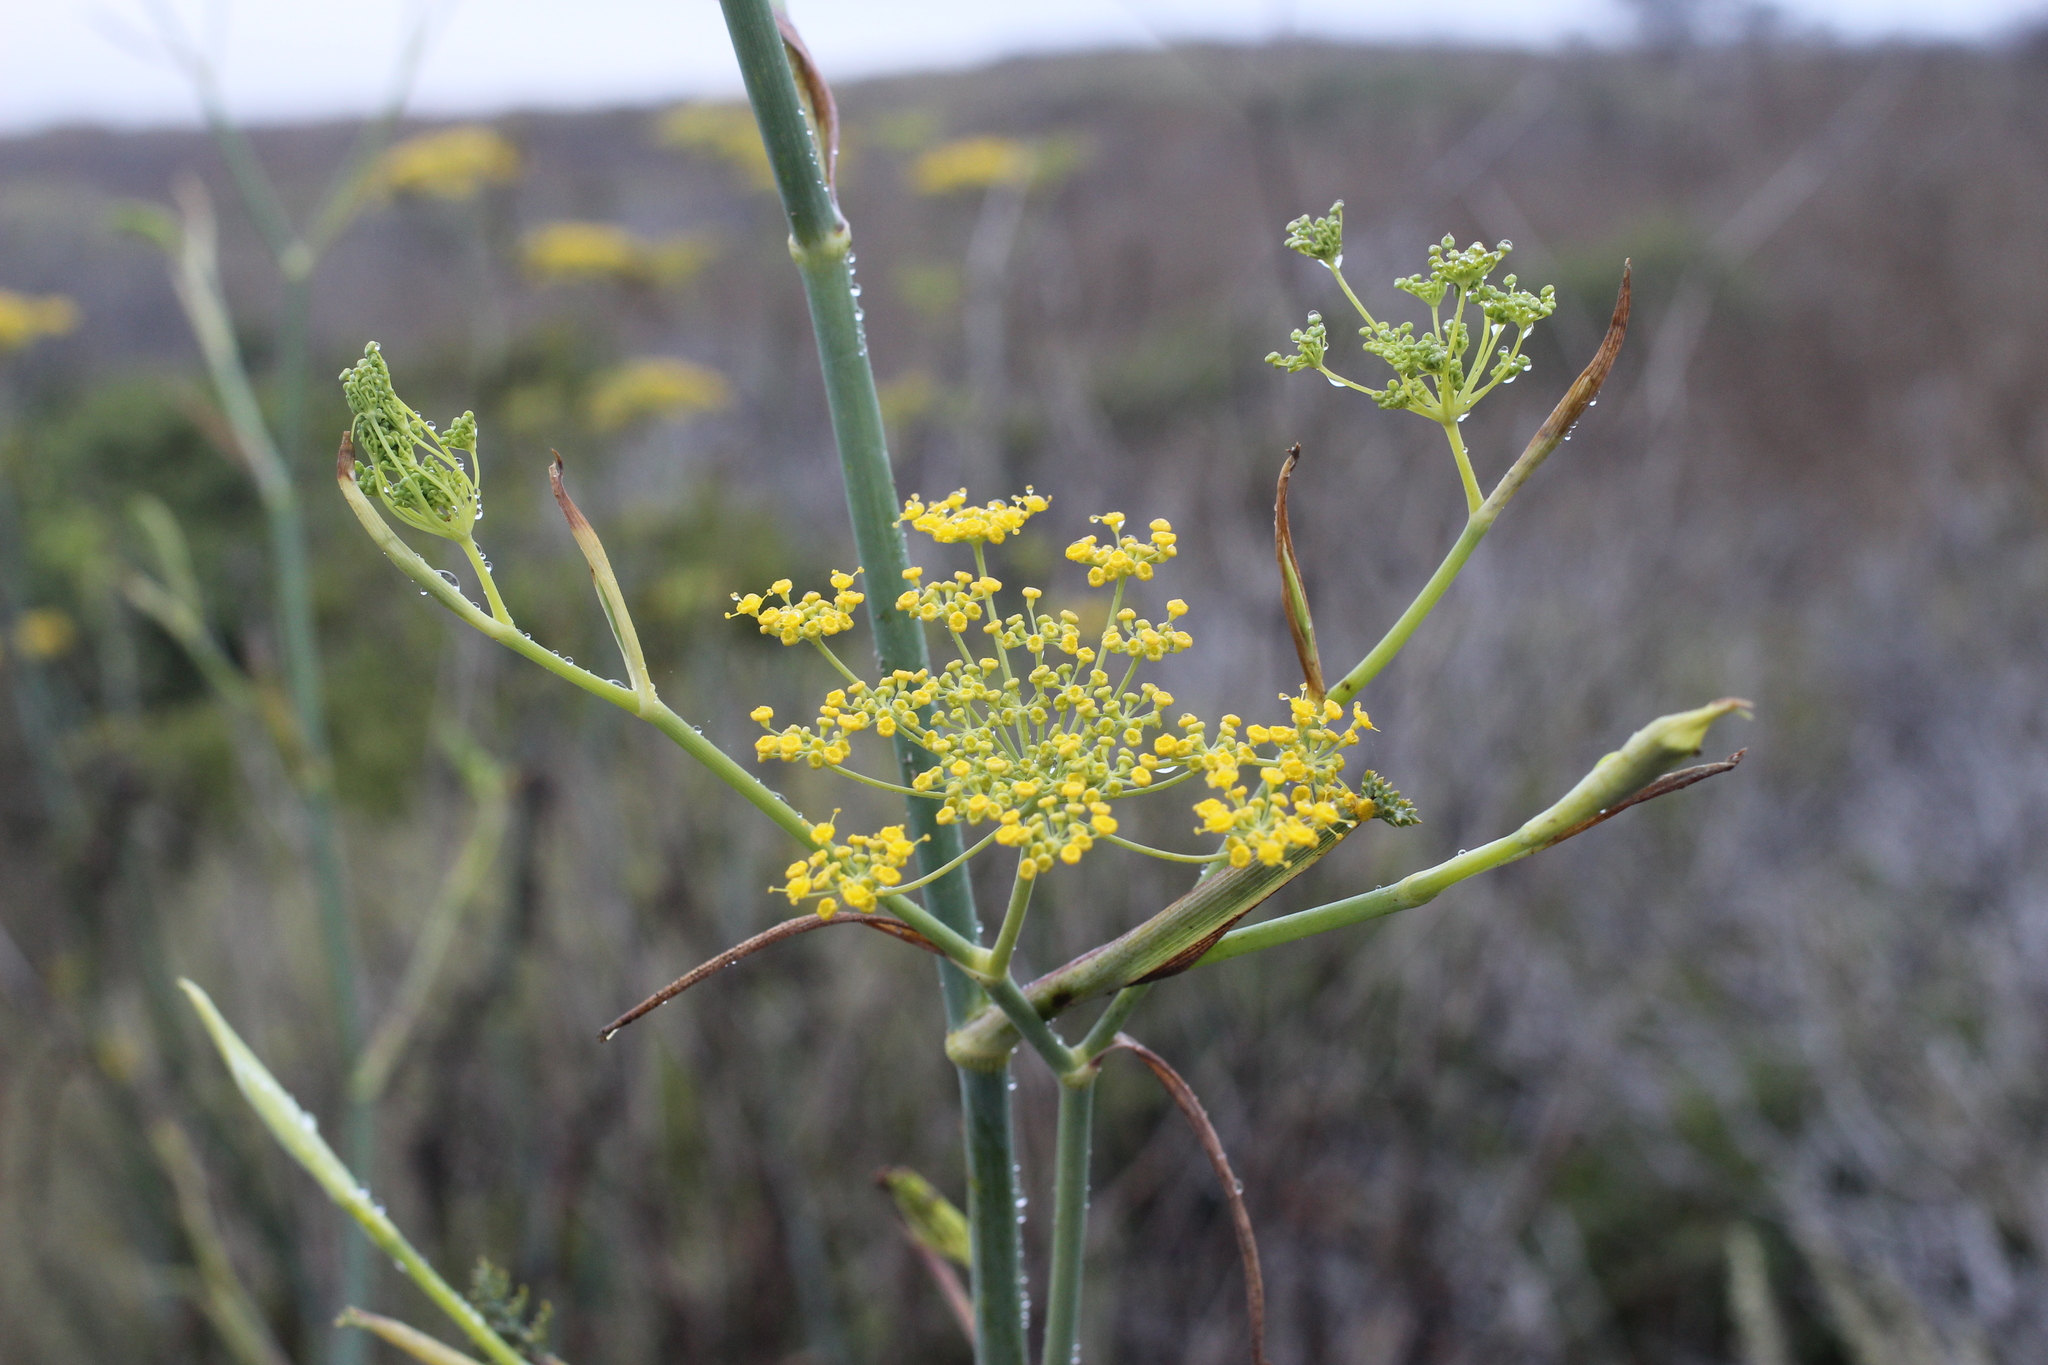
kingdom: Plantae
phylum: Tracheophyta
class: Magnoliopsida
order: Apiales
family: Apiaceae
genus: Foeniculum
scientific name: Foeniculum vulgare
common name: Fennel
